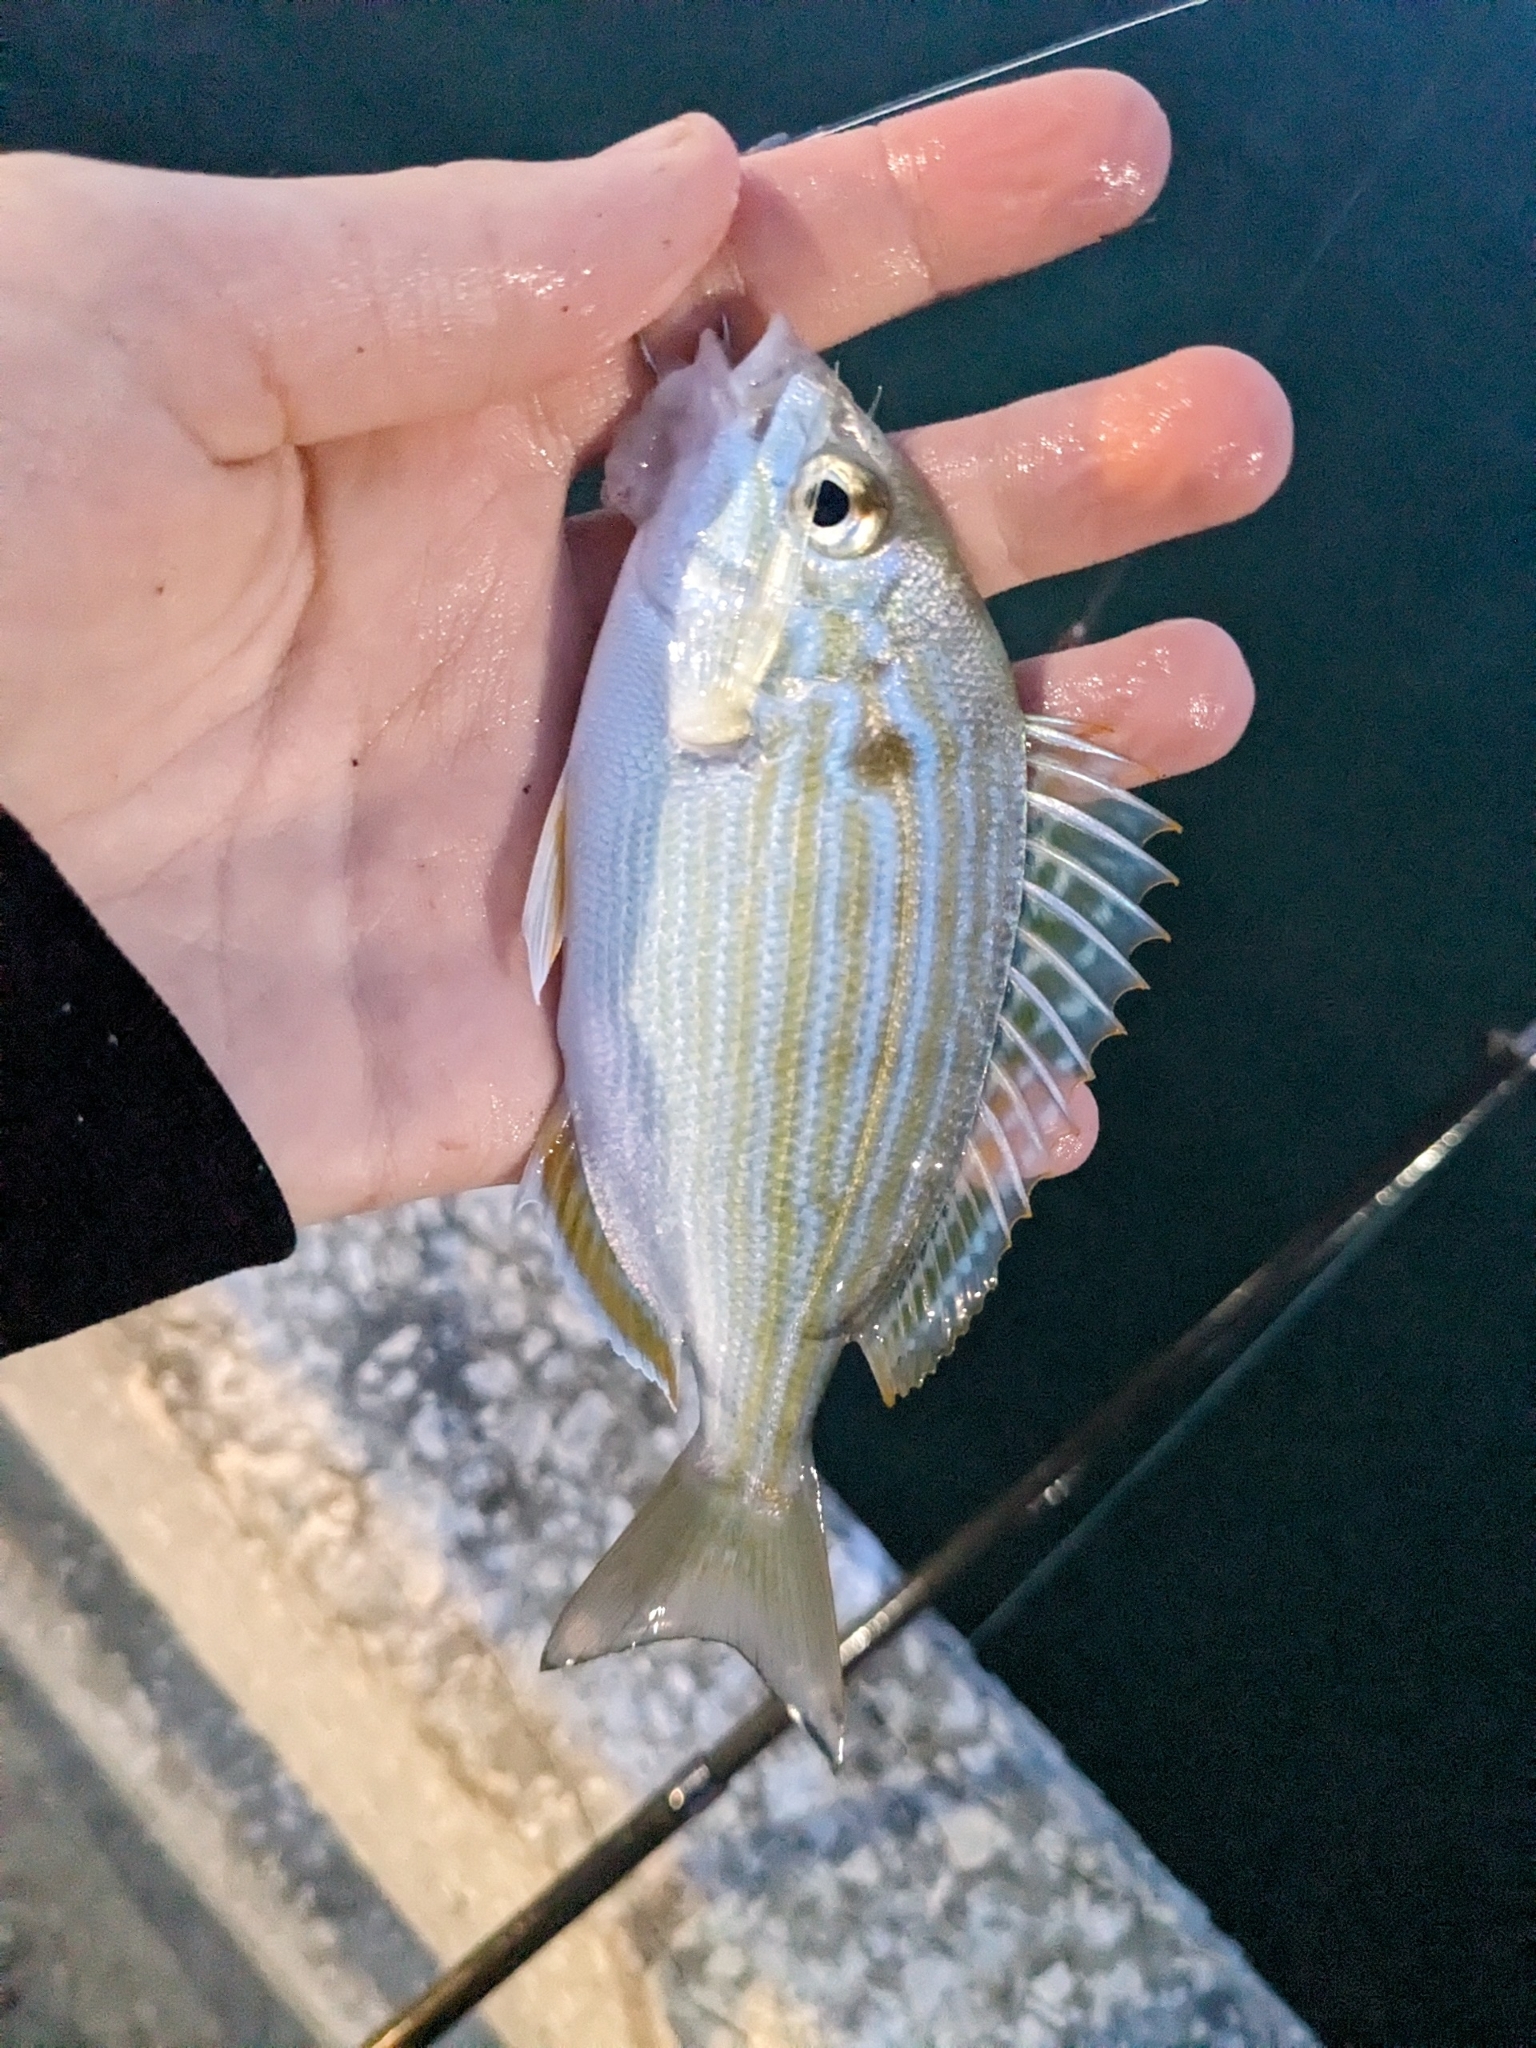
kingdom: Animalia
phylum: Chordata
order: Perciformes
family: Sparidae
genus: Lagodon
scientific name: Lagodon rhomboides
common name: Pinfish
